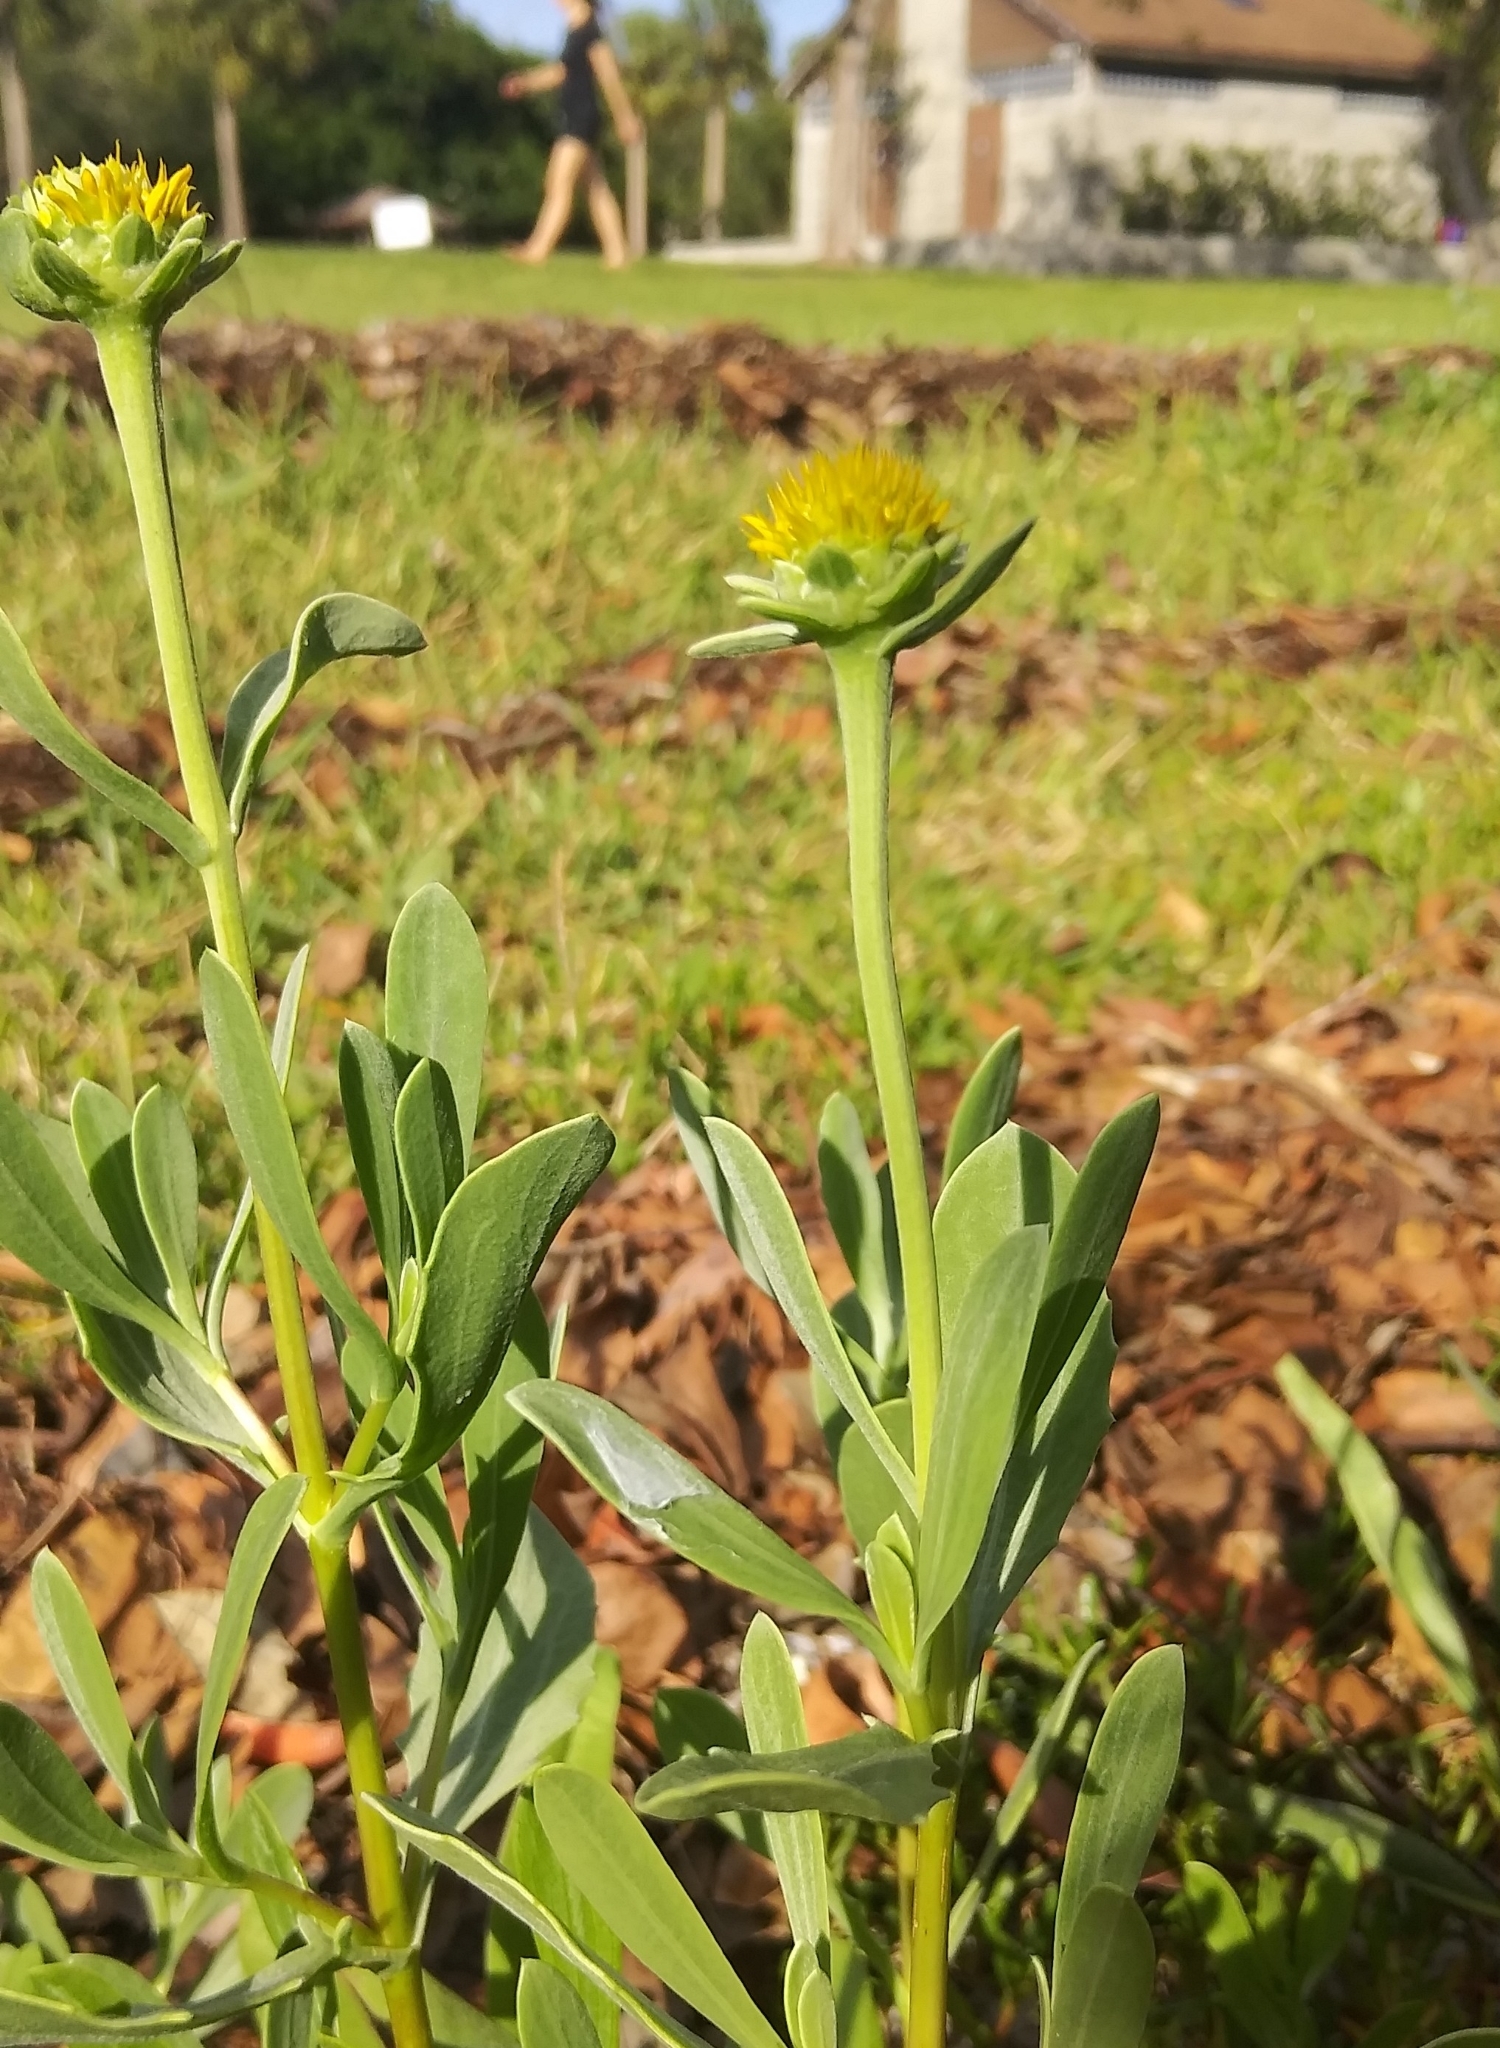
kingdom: Plantae
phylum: Tracheophyta
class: Magnoliopsida
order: Asterales
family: Asteraceae
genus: Borrichia
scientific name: Borrichia frutescens
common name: Sea oxeye
